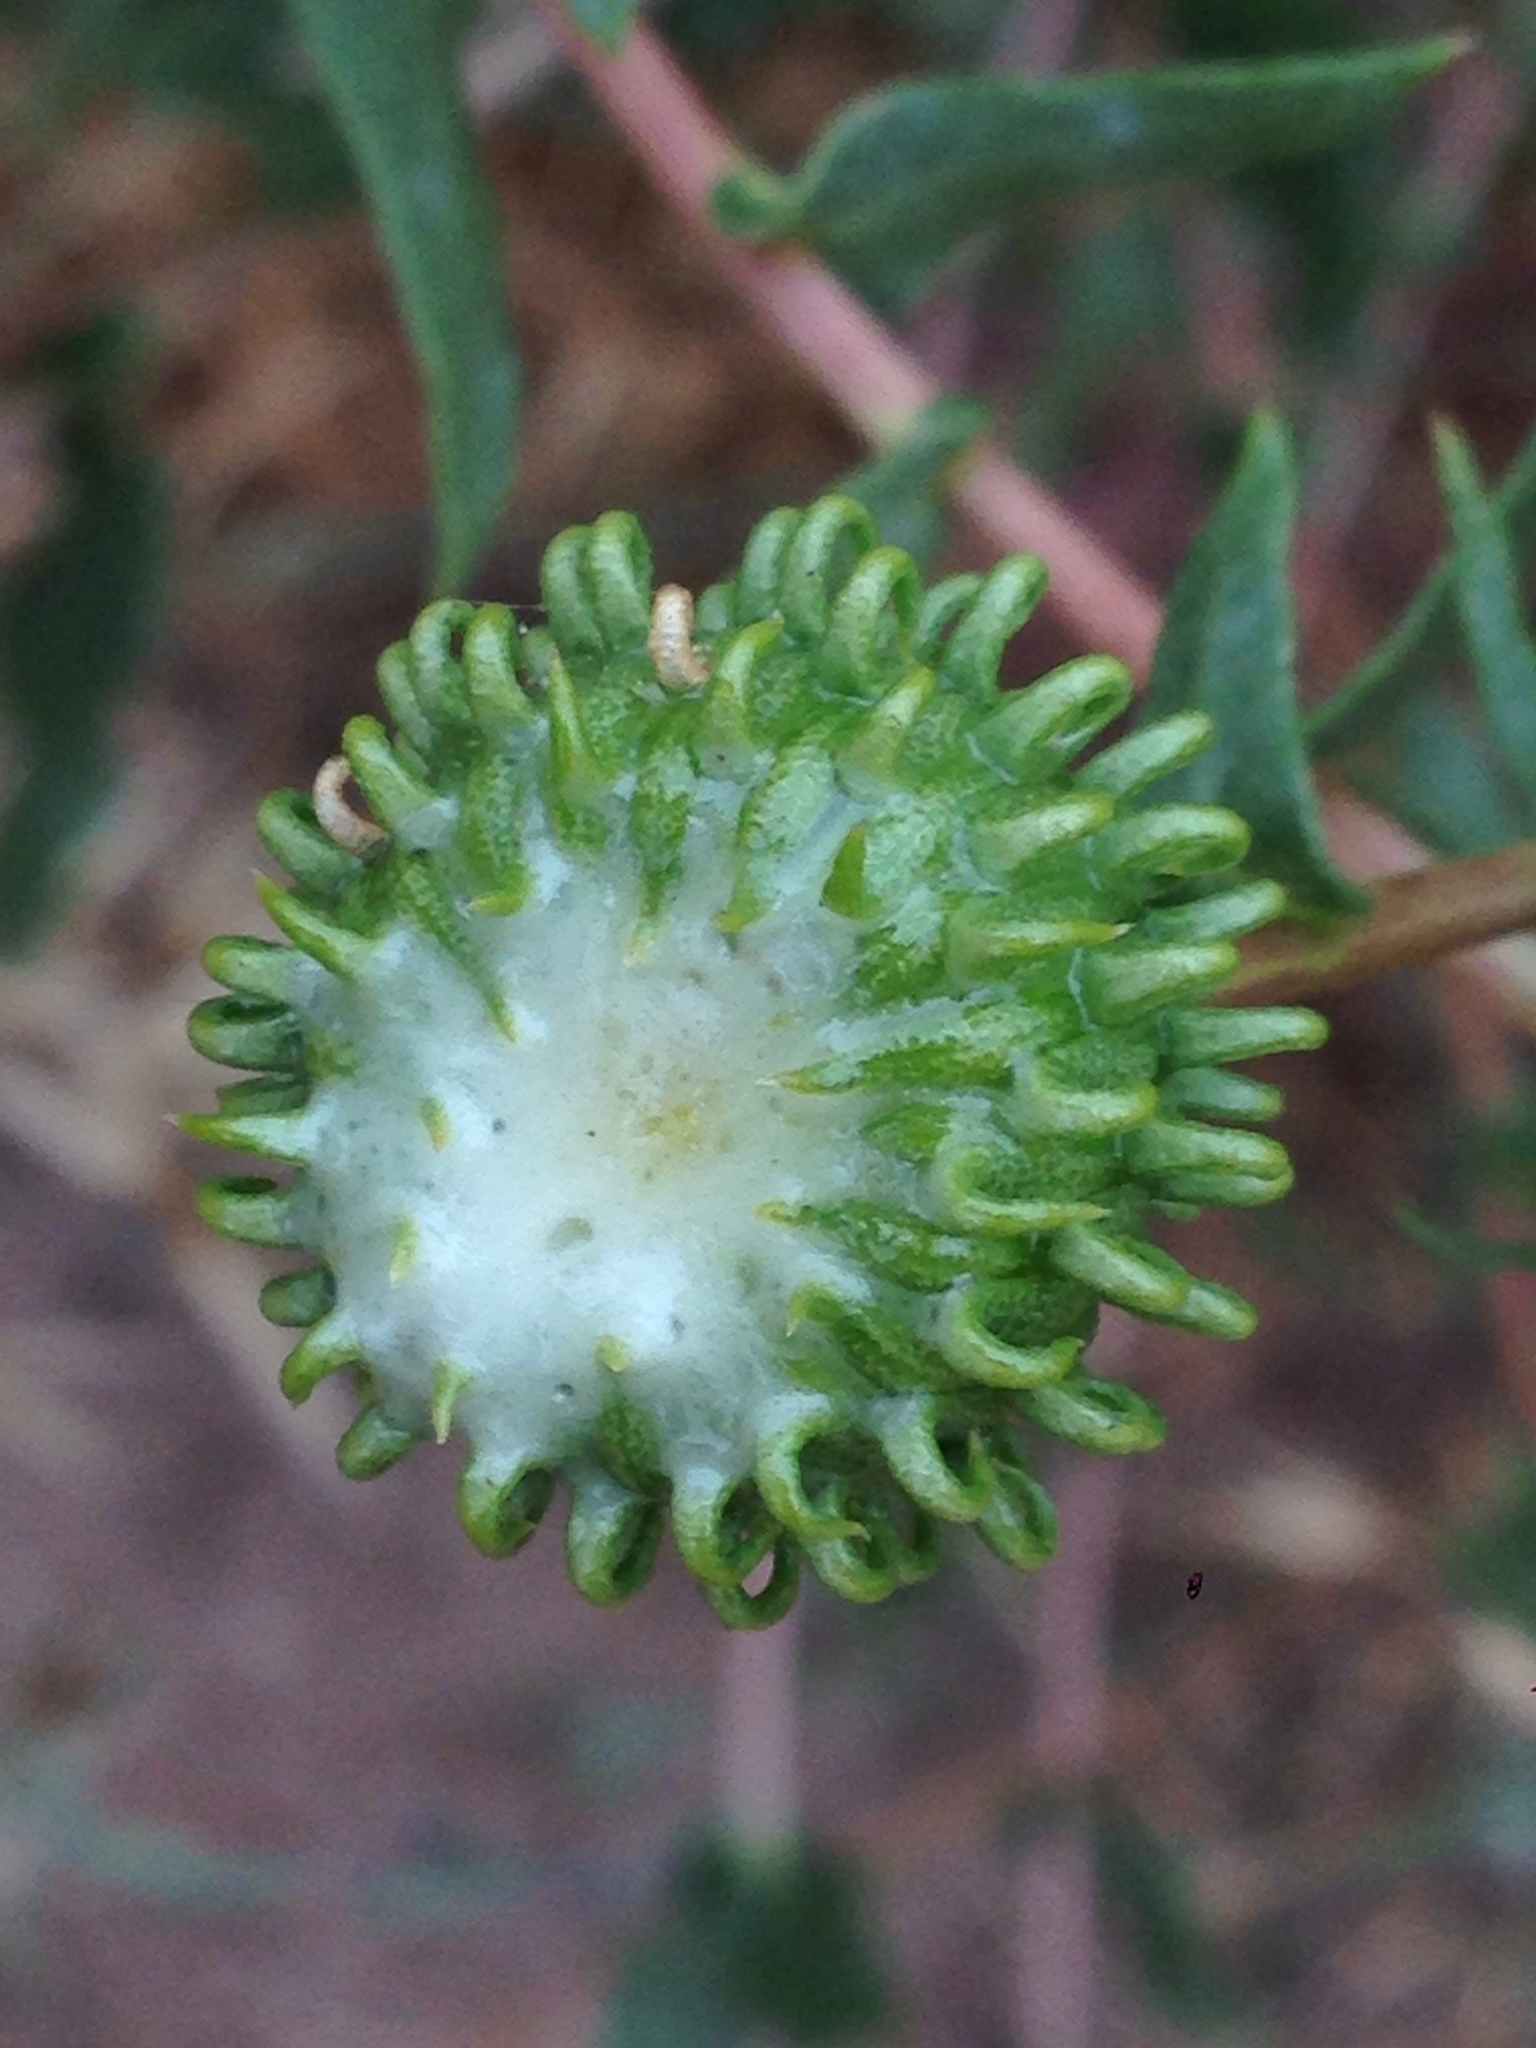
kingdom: Plantae
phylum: Tracheophyta
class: Magnoliopsida
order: Asterales
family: Asteraceae
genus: Grindelia
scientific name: Grindelia hirsutula
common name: Hairy gumweed
